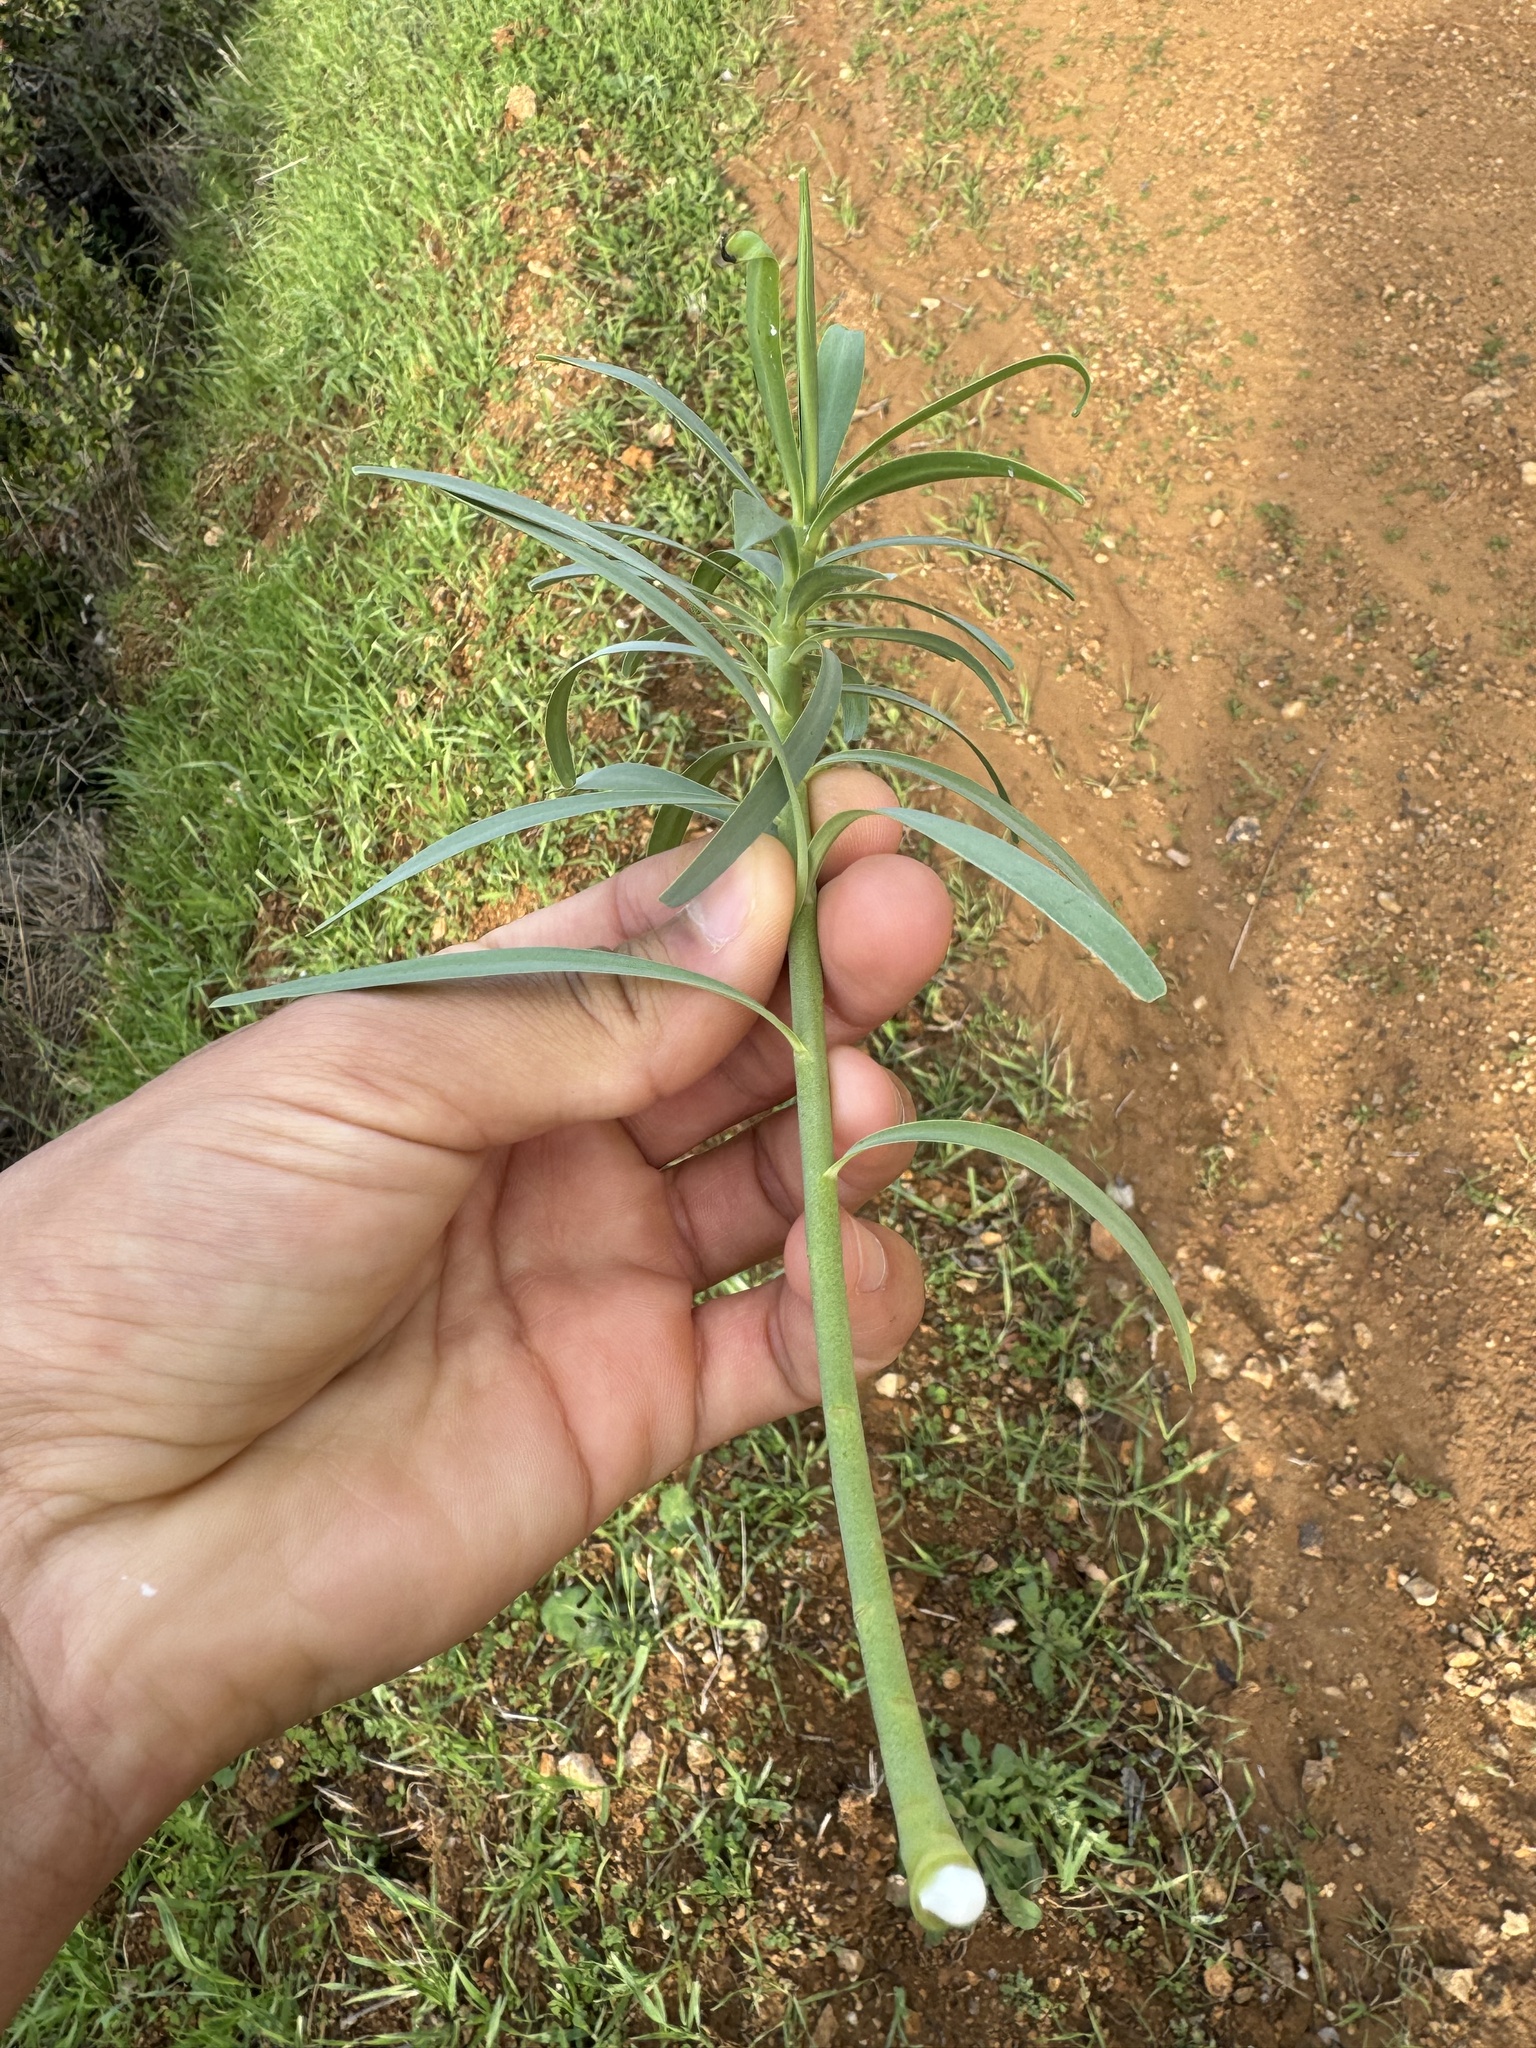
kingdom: Plantae
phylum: Tracheophyta
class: Magnoliopsida
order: Malpighiales
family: Euphorbiaceae
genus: Euphorbia
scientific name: Euphorbia lamarckii
